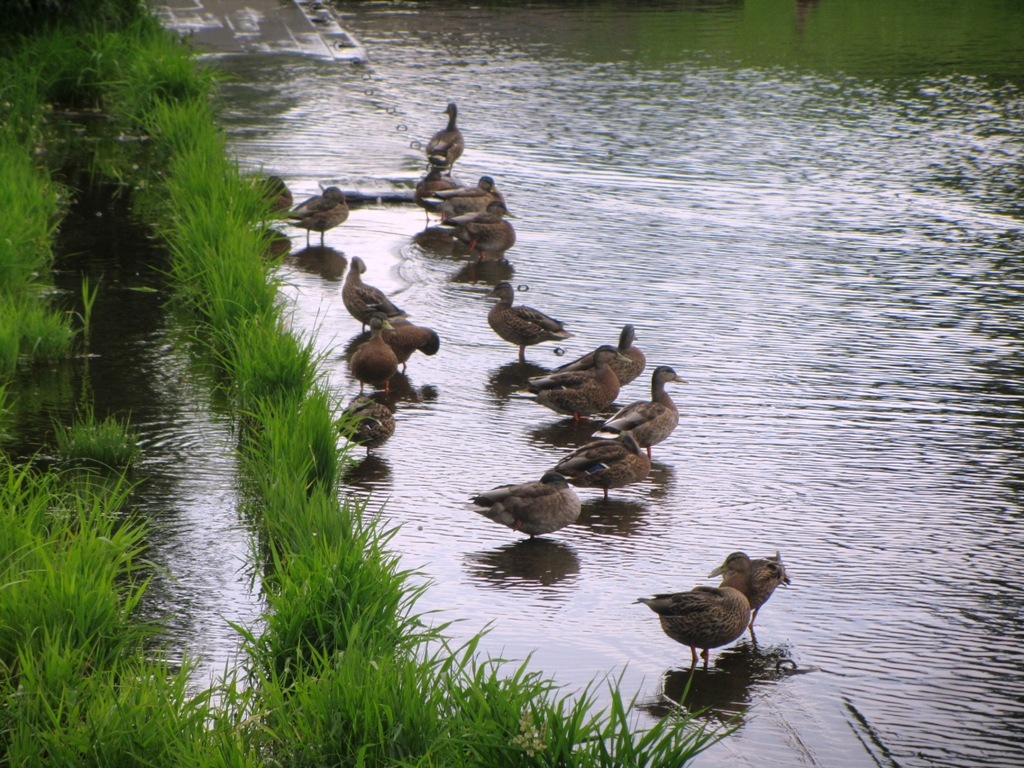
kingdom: Animalia
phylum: Chordata
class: Aves
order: Anseriformes
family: Anatidae
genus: Anas
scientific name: Anas platyrhynchos
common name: Mallard
